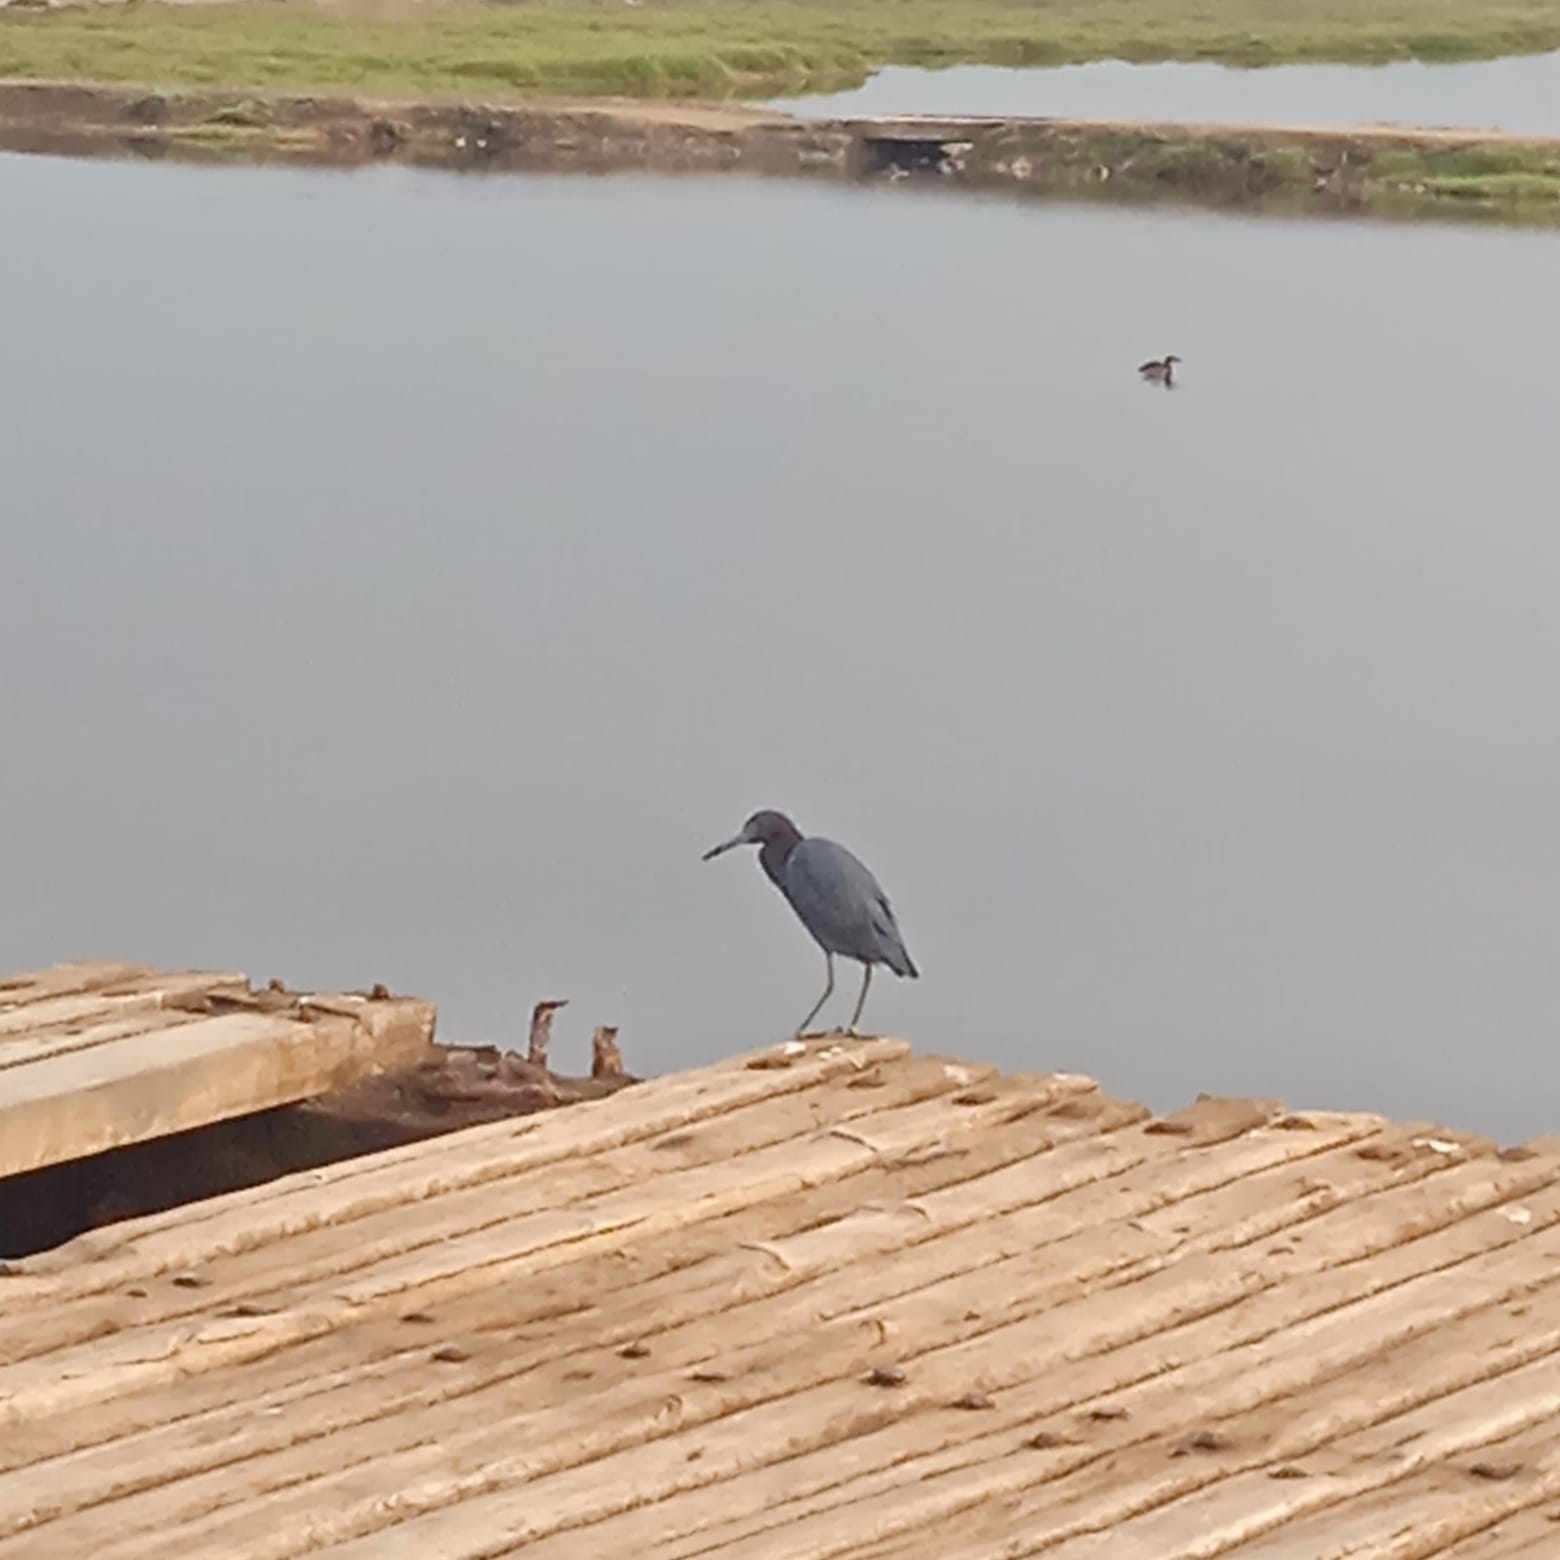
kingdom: Animalia
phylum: Chordata
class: Aves
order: Pelecaniformes
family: Ardeidae
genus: Egretta
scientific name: Egretta caerulea
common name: Little blue heron
